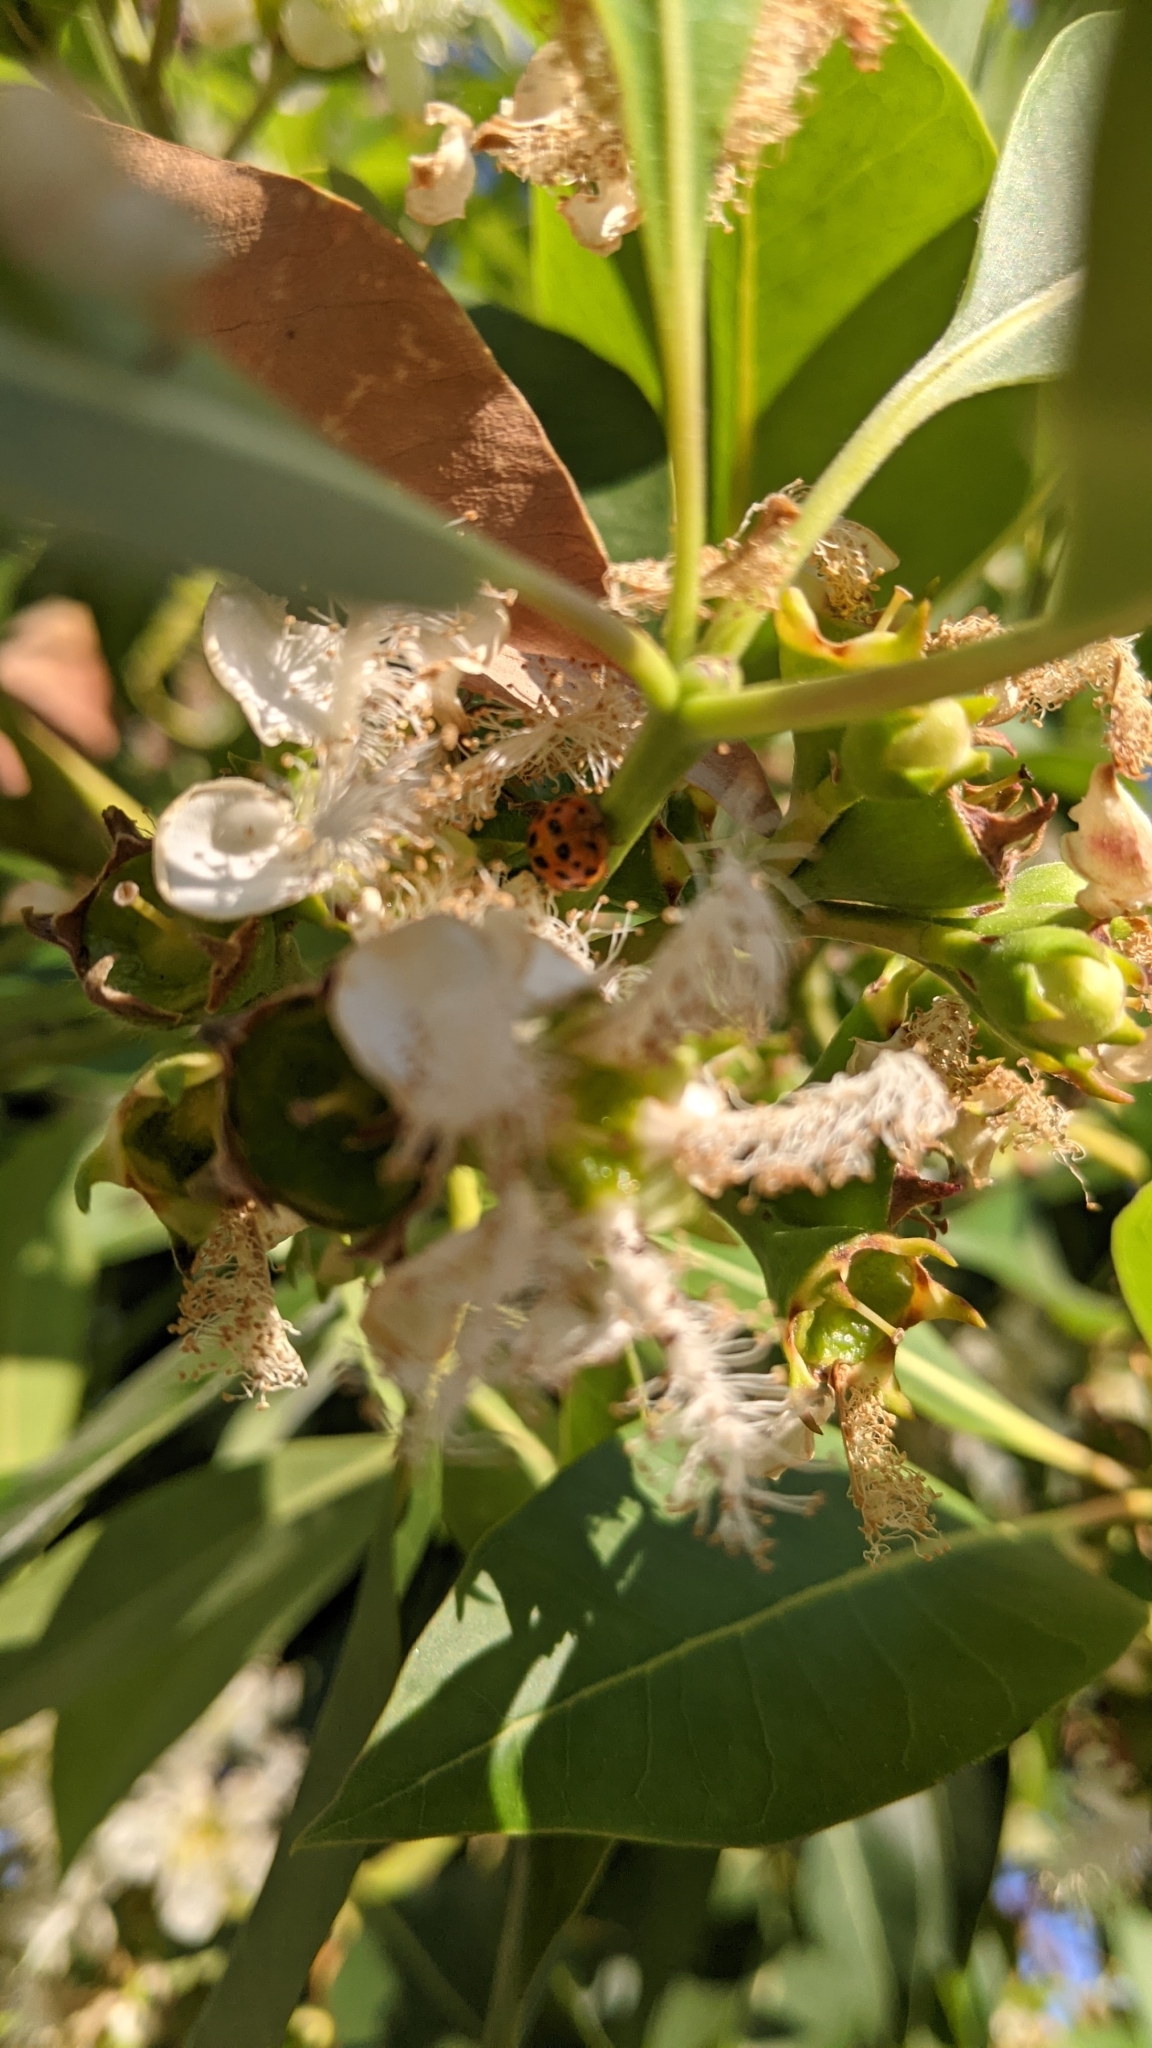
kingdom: Animalia
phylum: Arthropoda
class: Insecta
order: Coleoptera
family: Coccinellidae
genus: Harmonia
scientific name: Harmonia axyridis
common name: Harlequin ladybird
